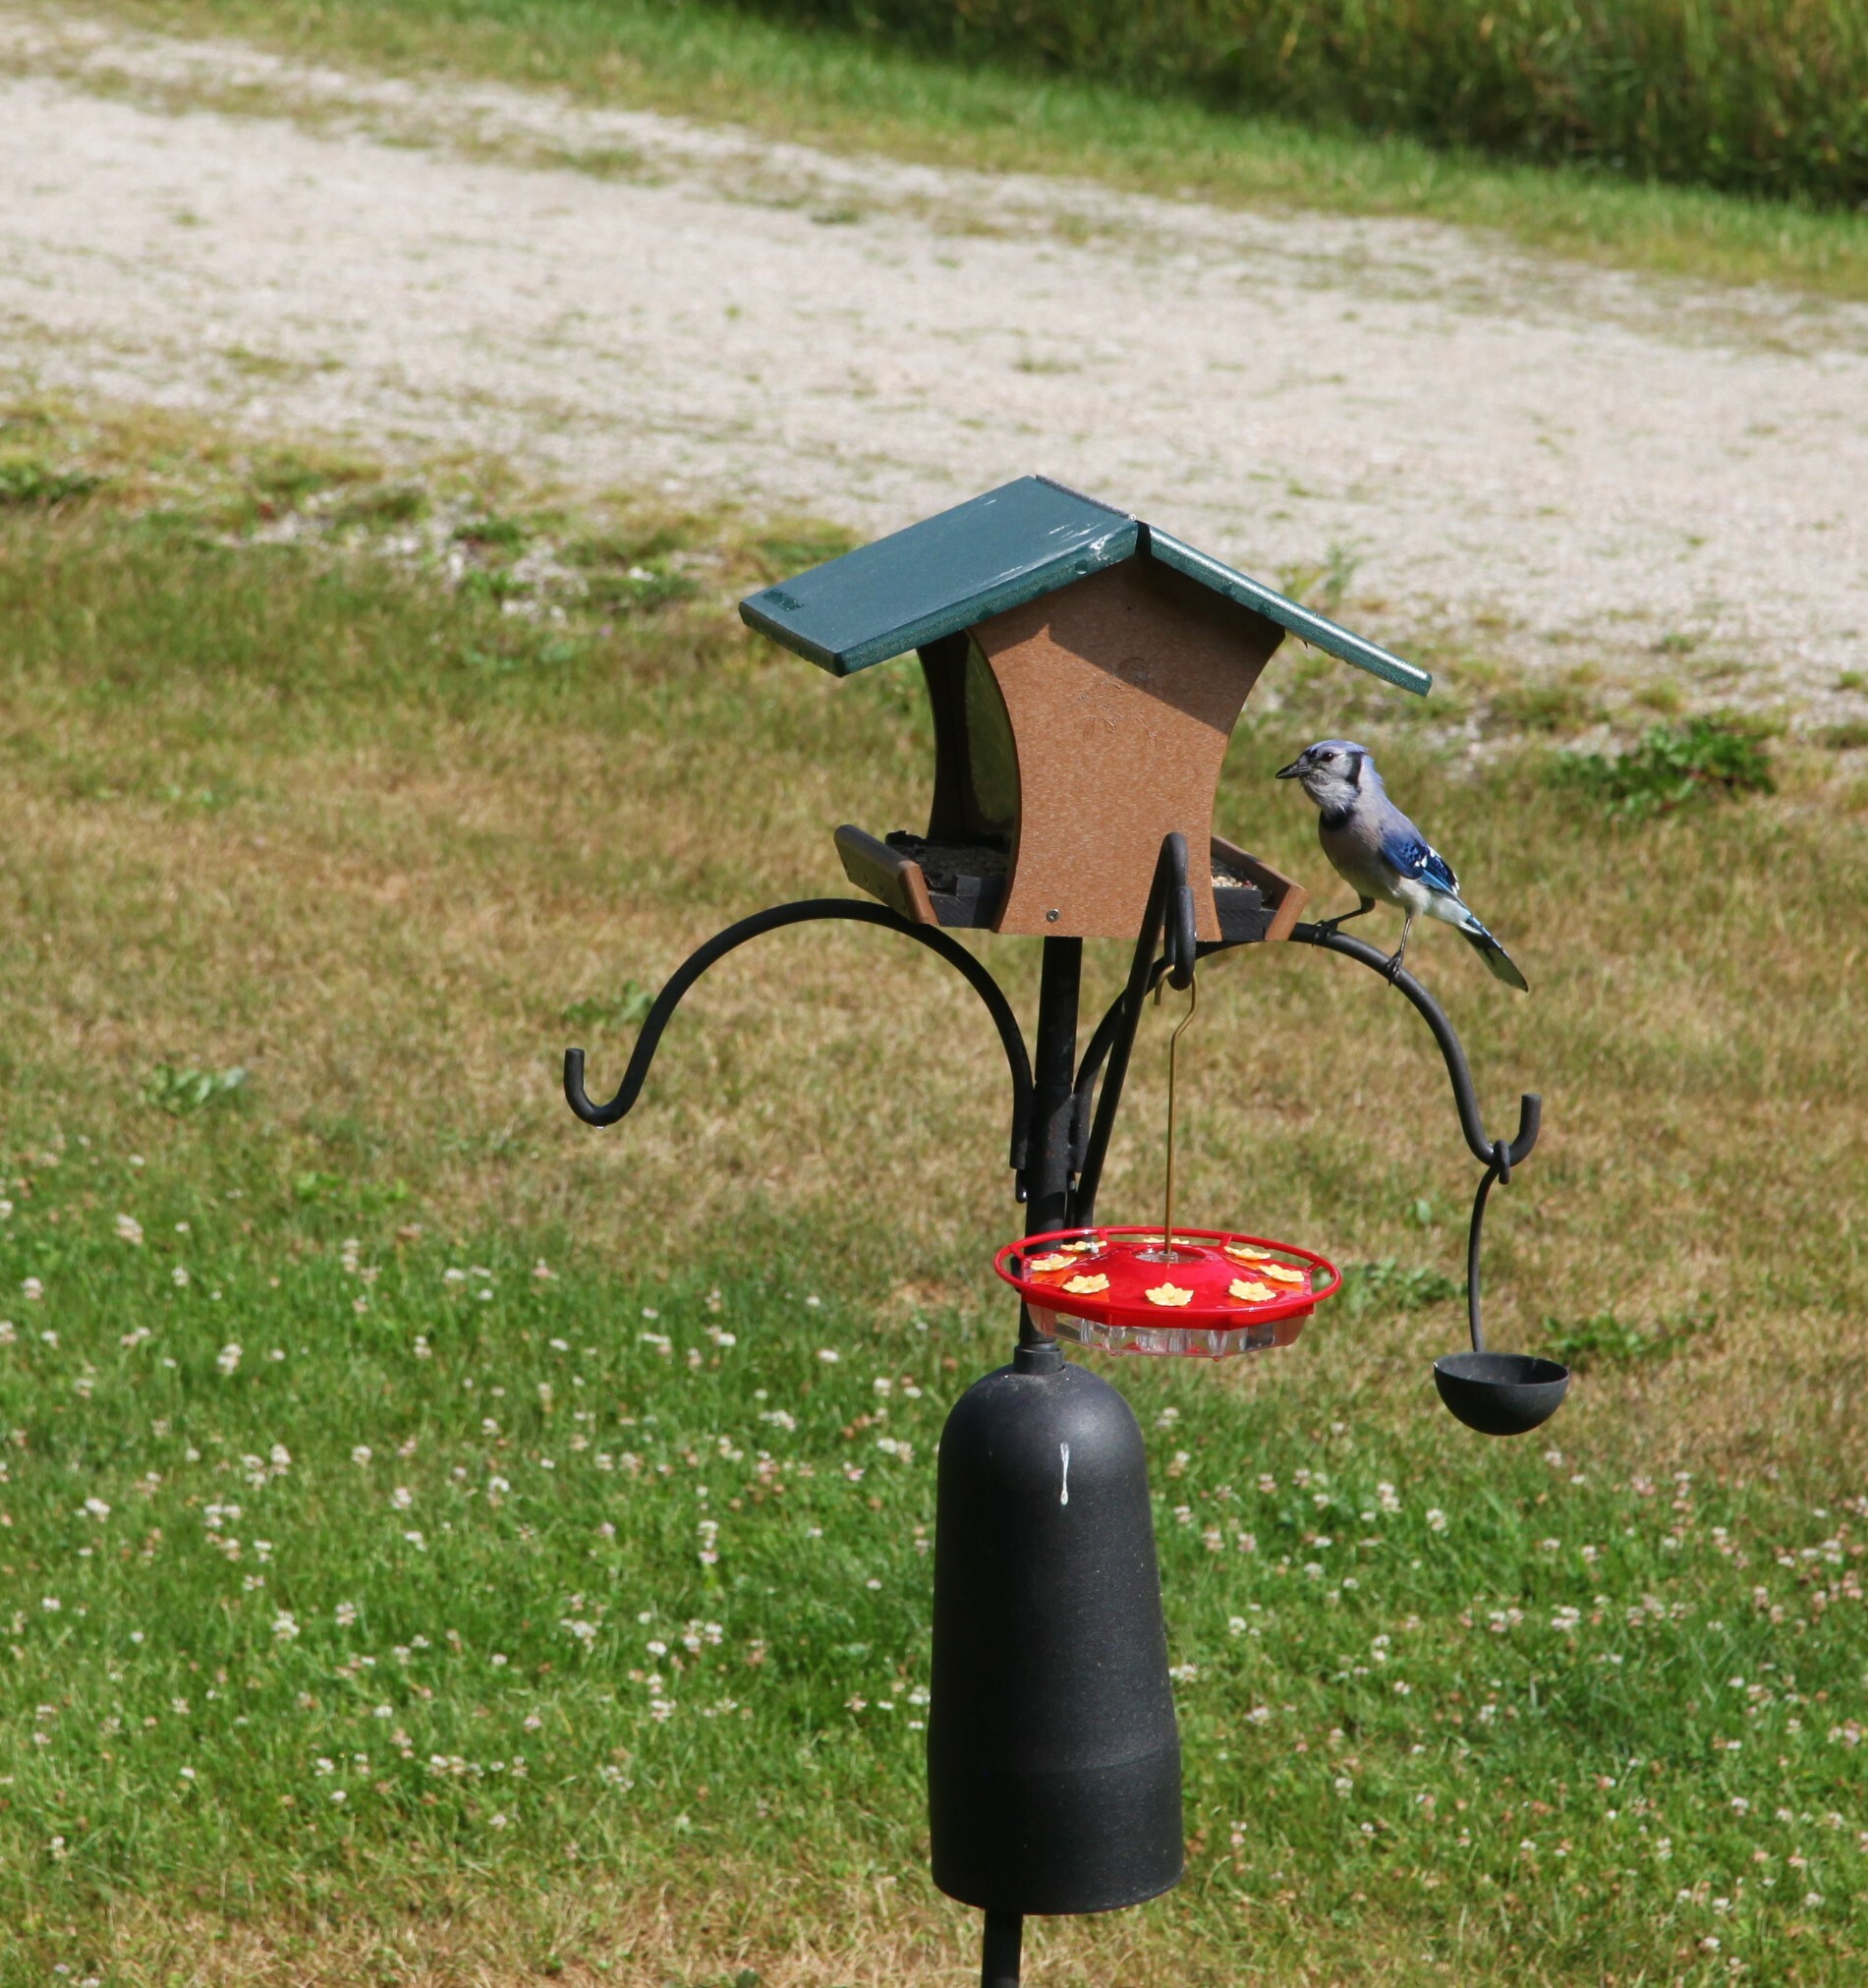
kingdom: Animalia
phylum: Chordata
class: Aves
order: Passeriformes
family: Corvidae
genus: Cyanocitta
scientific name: Cyanocitta cristata
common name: Blue jay
